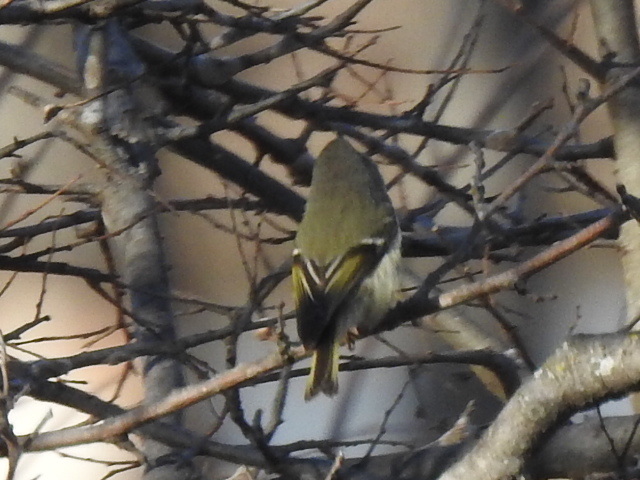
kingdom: Animalia
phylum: Chordata
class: Aves
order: Passeriformes
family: Regulidae
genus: Regulus
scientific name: Regulus calendula
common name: Ruby-crowned kinglet
